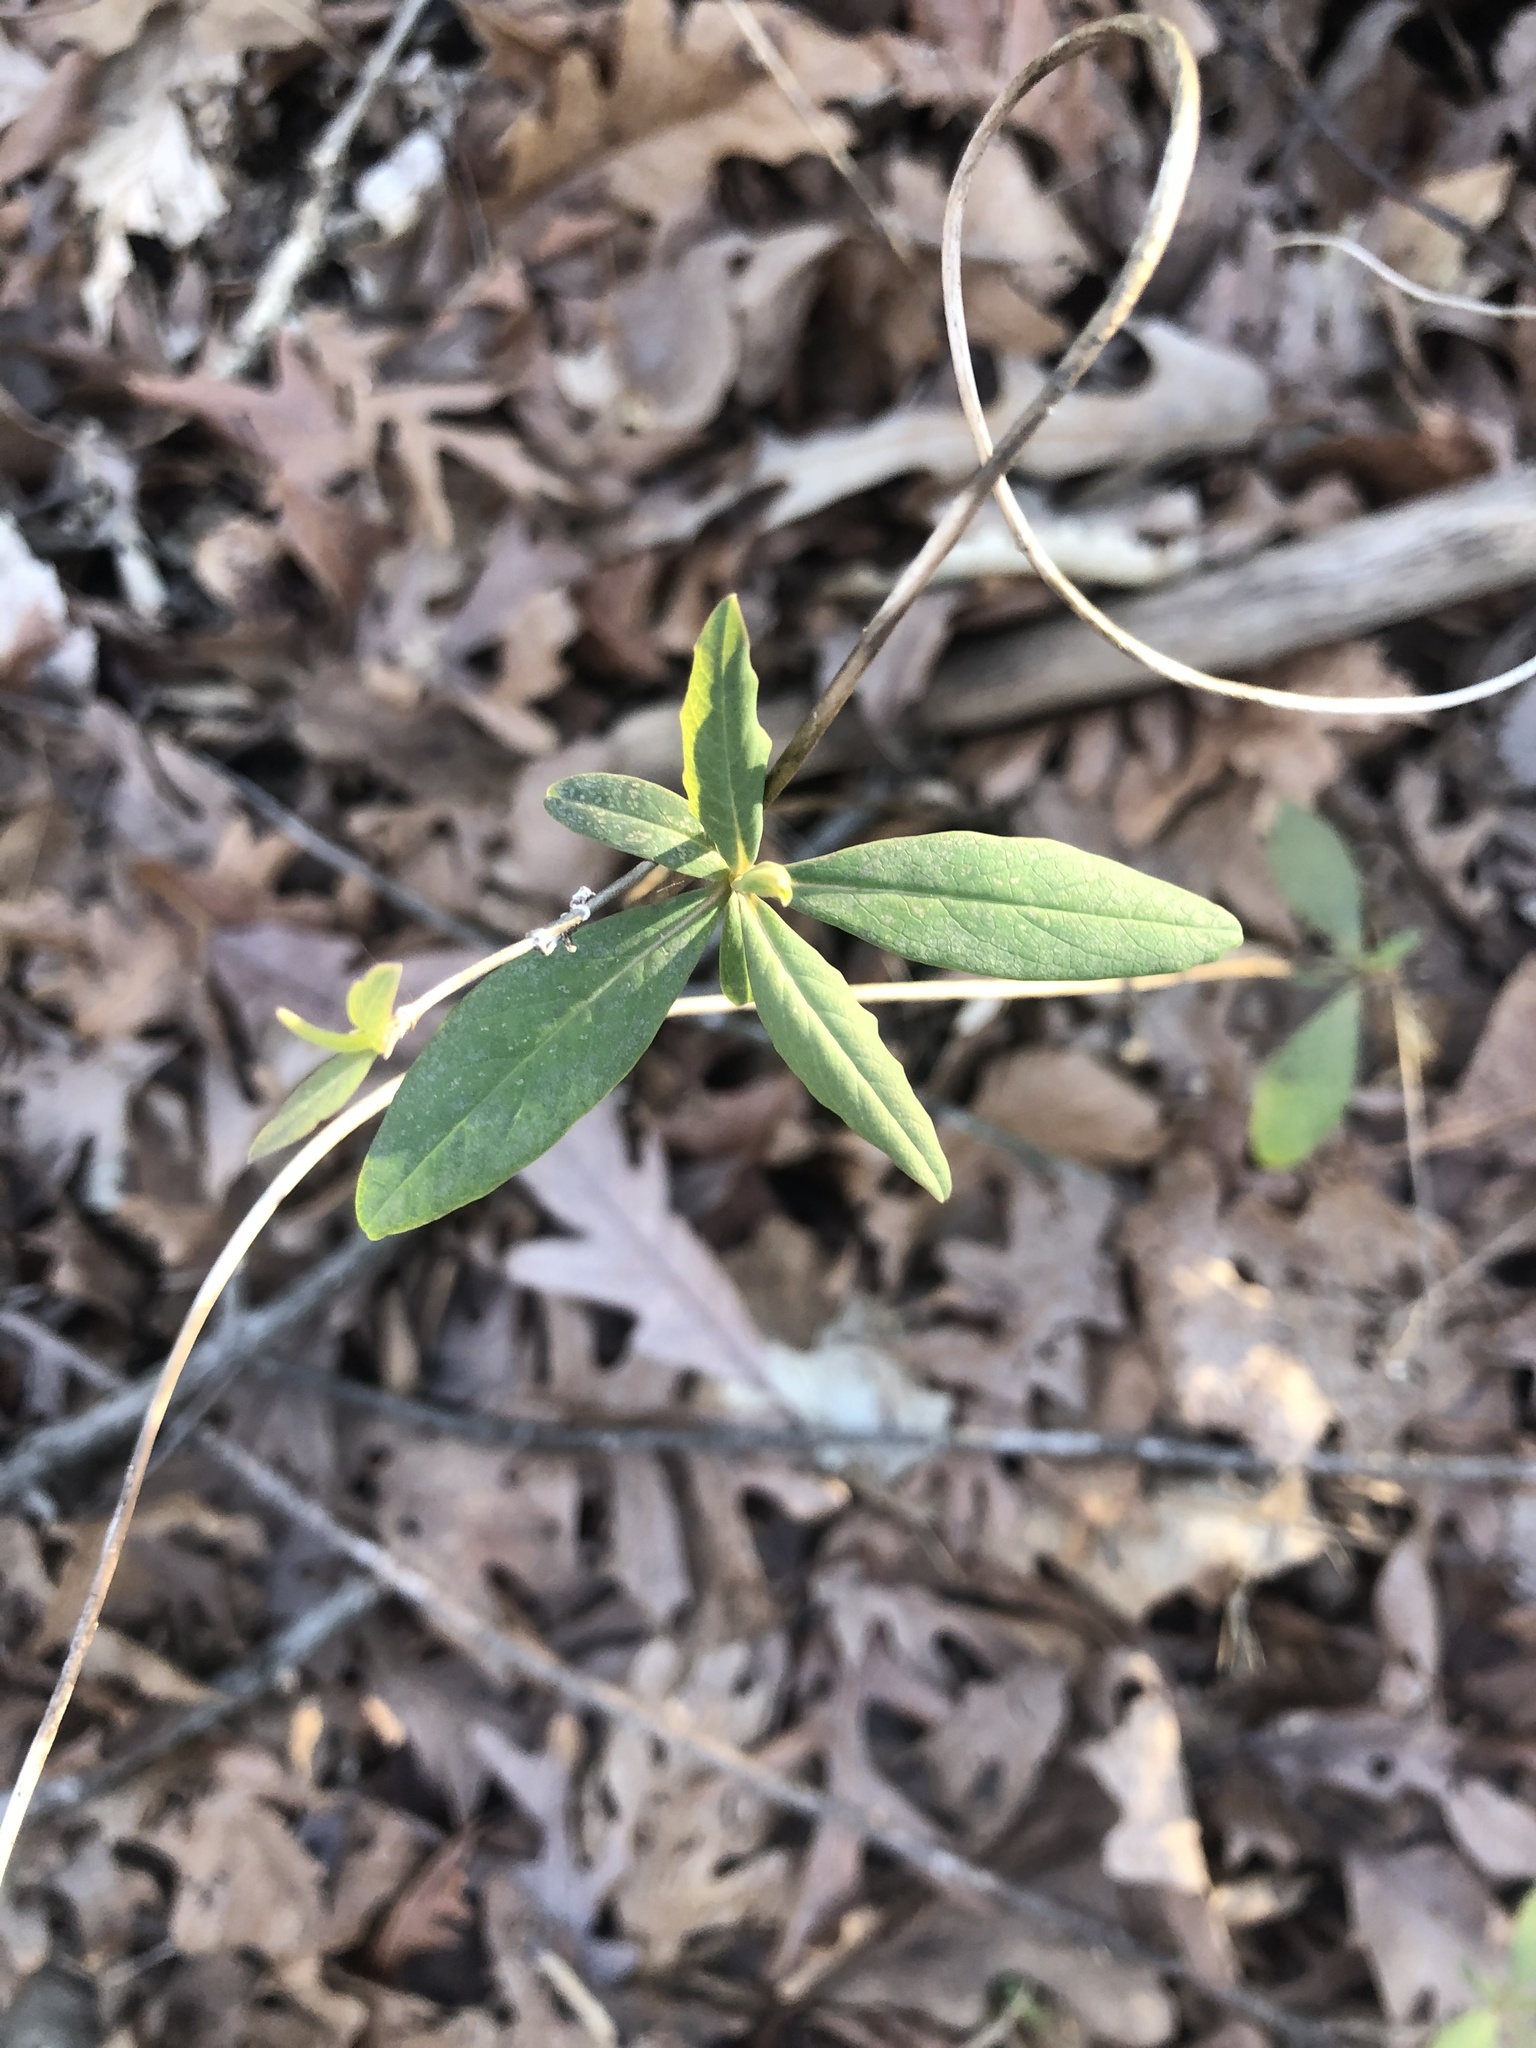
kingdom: Plantae
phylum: Tracheophyta
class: Magnoliopsida
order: Dipsacales
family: Caprifoliaceae
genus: Lonicera
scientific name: Lonicera sempervirens
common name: Coral honeysuckle
